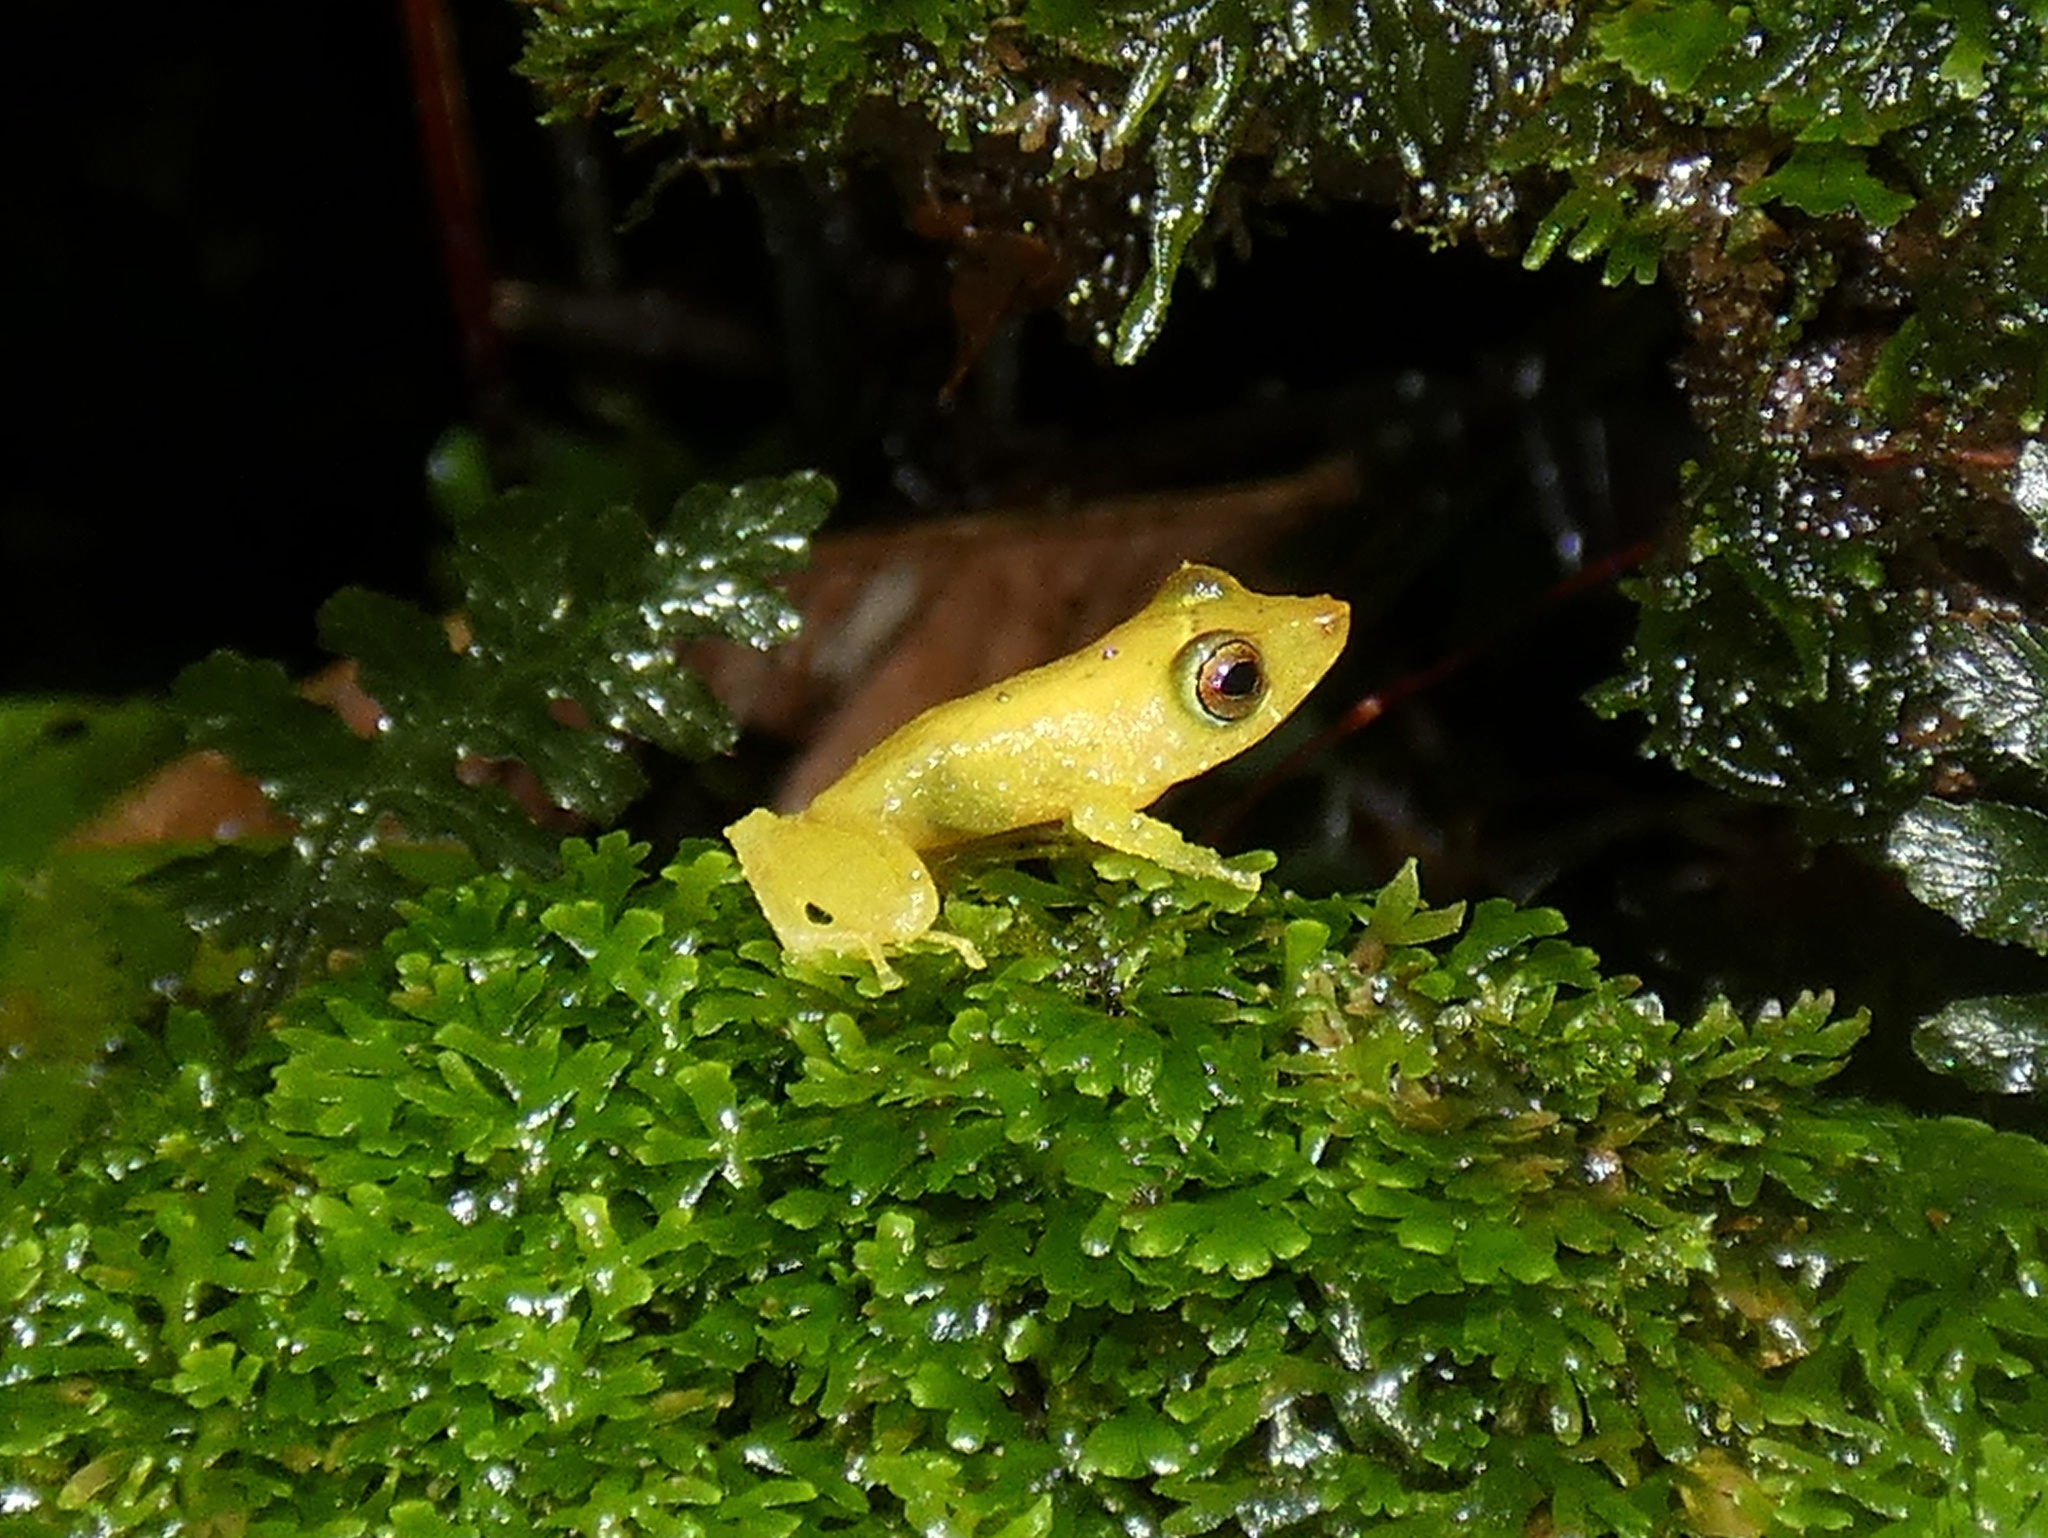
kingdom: Animalia
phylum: Chordata
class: Amphibia
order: Anura
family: Craugastoridae
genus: Pristimantis
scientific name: Pristimantis caryophyllaceus
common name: La loma robber frog
